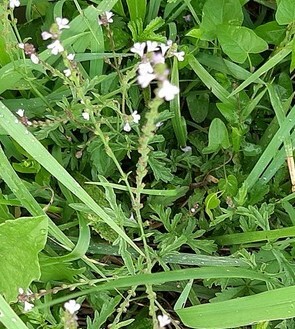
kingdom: Plantae
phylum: Tracheophyta
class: Magnoliopsida
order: Lamiales
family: Verbenaceae
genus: Verbena
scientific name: Verbena officinalis
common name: Vervain
